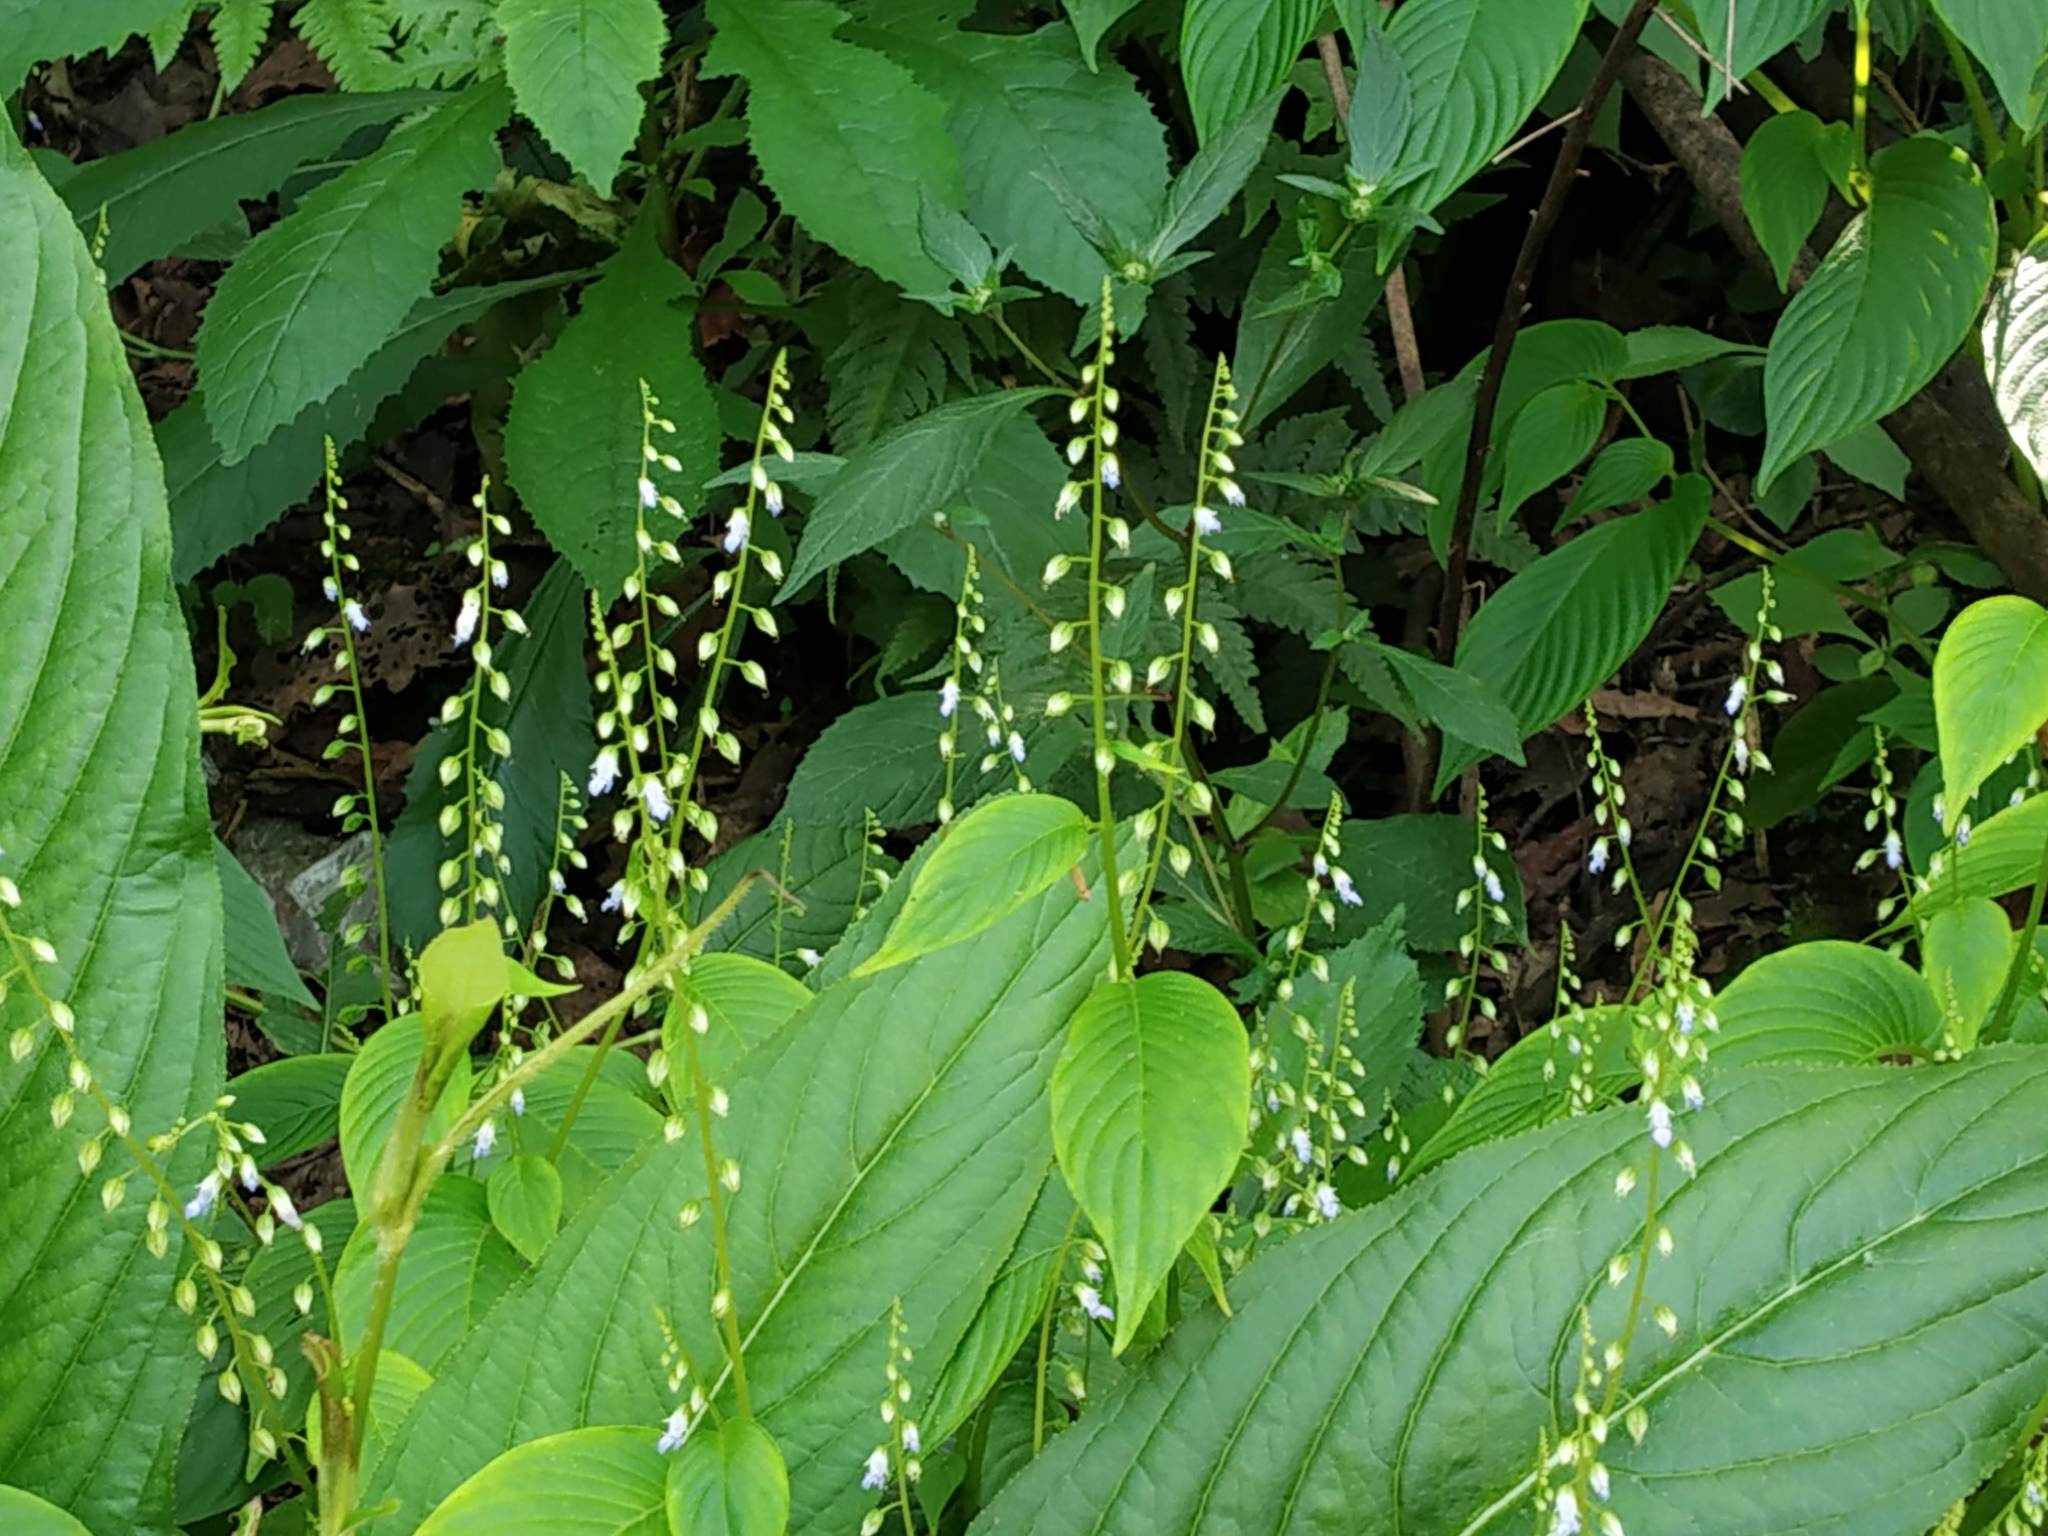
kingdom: Plantae
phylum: Tracheophyta
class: Magnoliopsida
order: Lamiales
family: Gesneriaceae
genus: Rhynchoglossum
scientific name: Rhynchoglossum obliquum
